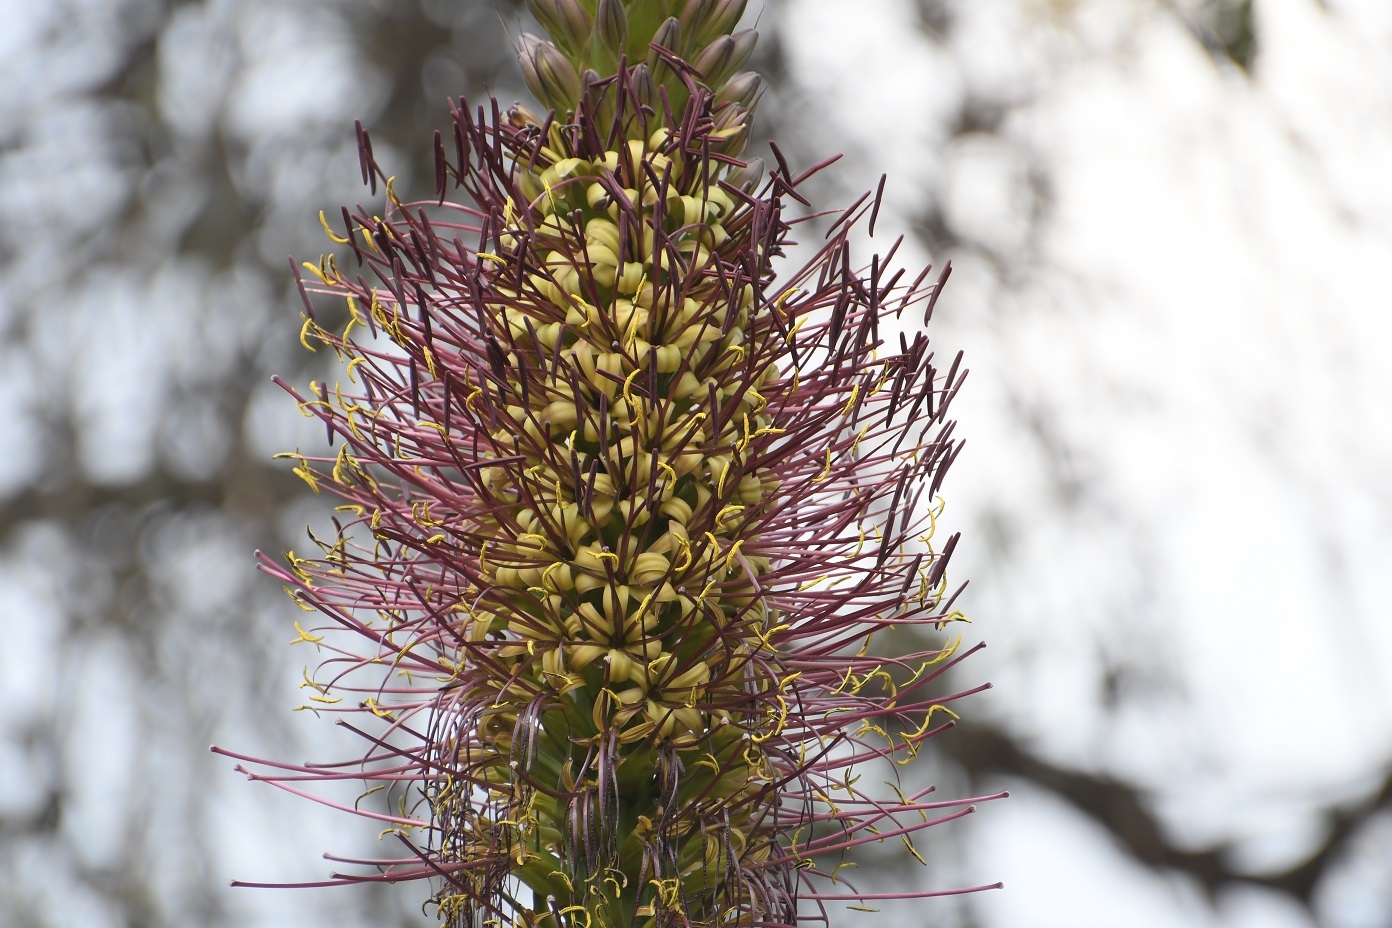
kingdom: Plantae
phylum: Tracheophyta
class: Liliopsida
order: Asparagales
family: Asparagaceae
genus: Agave
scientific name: Agave warelliana
